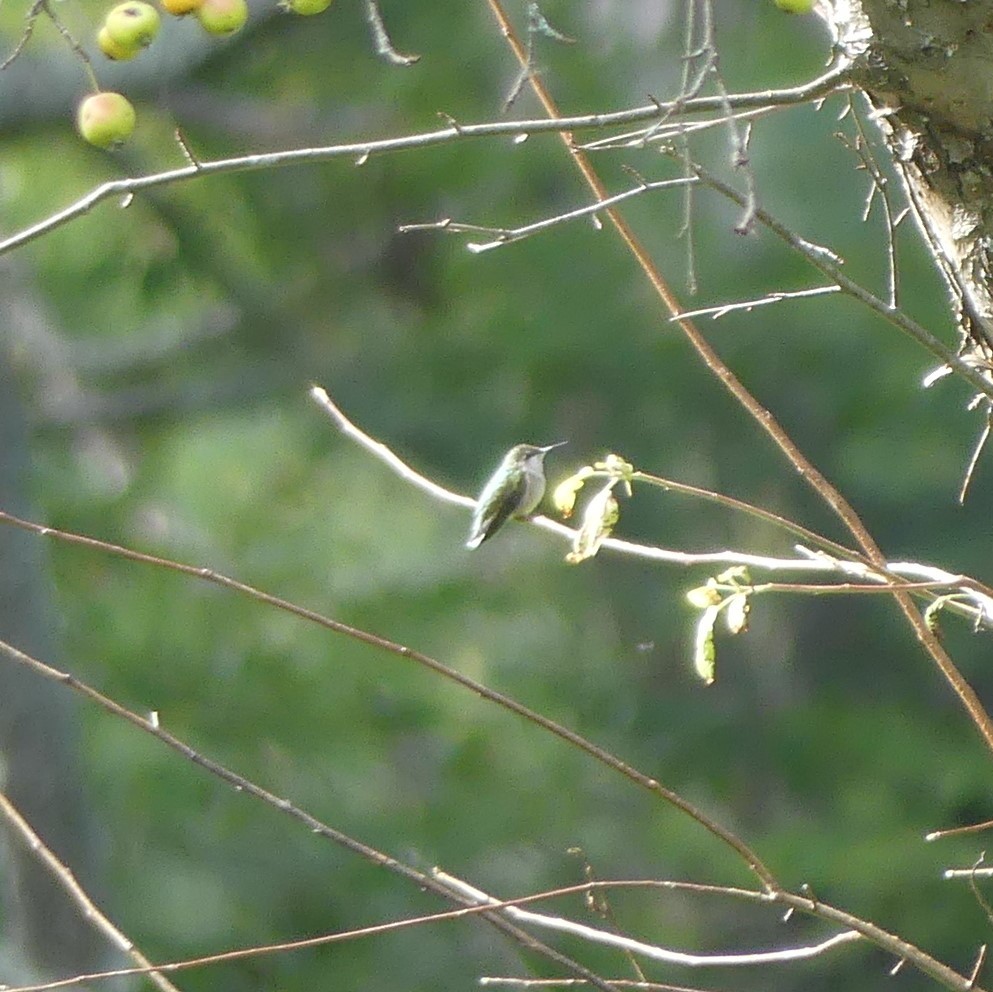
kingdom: Animalia
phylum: Chordata
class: Aves
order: Apodiformes
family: Trochilidae
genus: Archilochus
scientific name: Archilochus colubris
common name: Ruby-throated hummingbird
